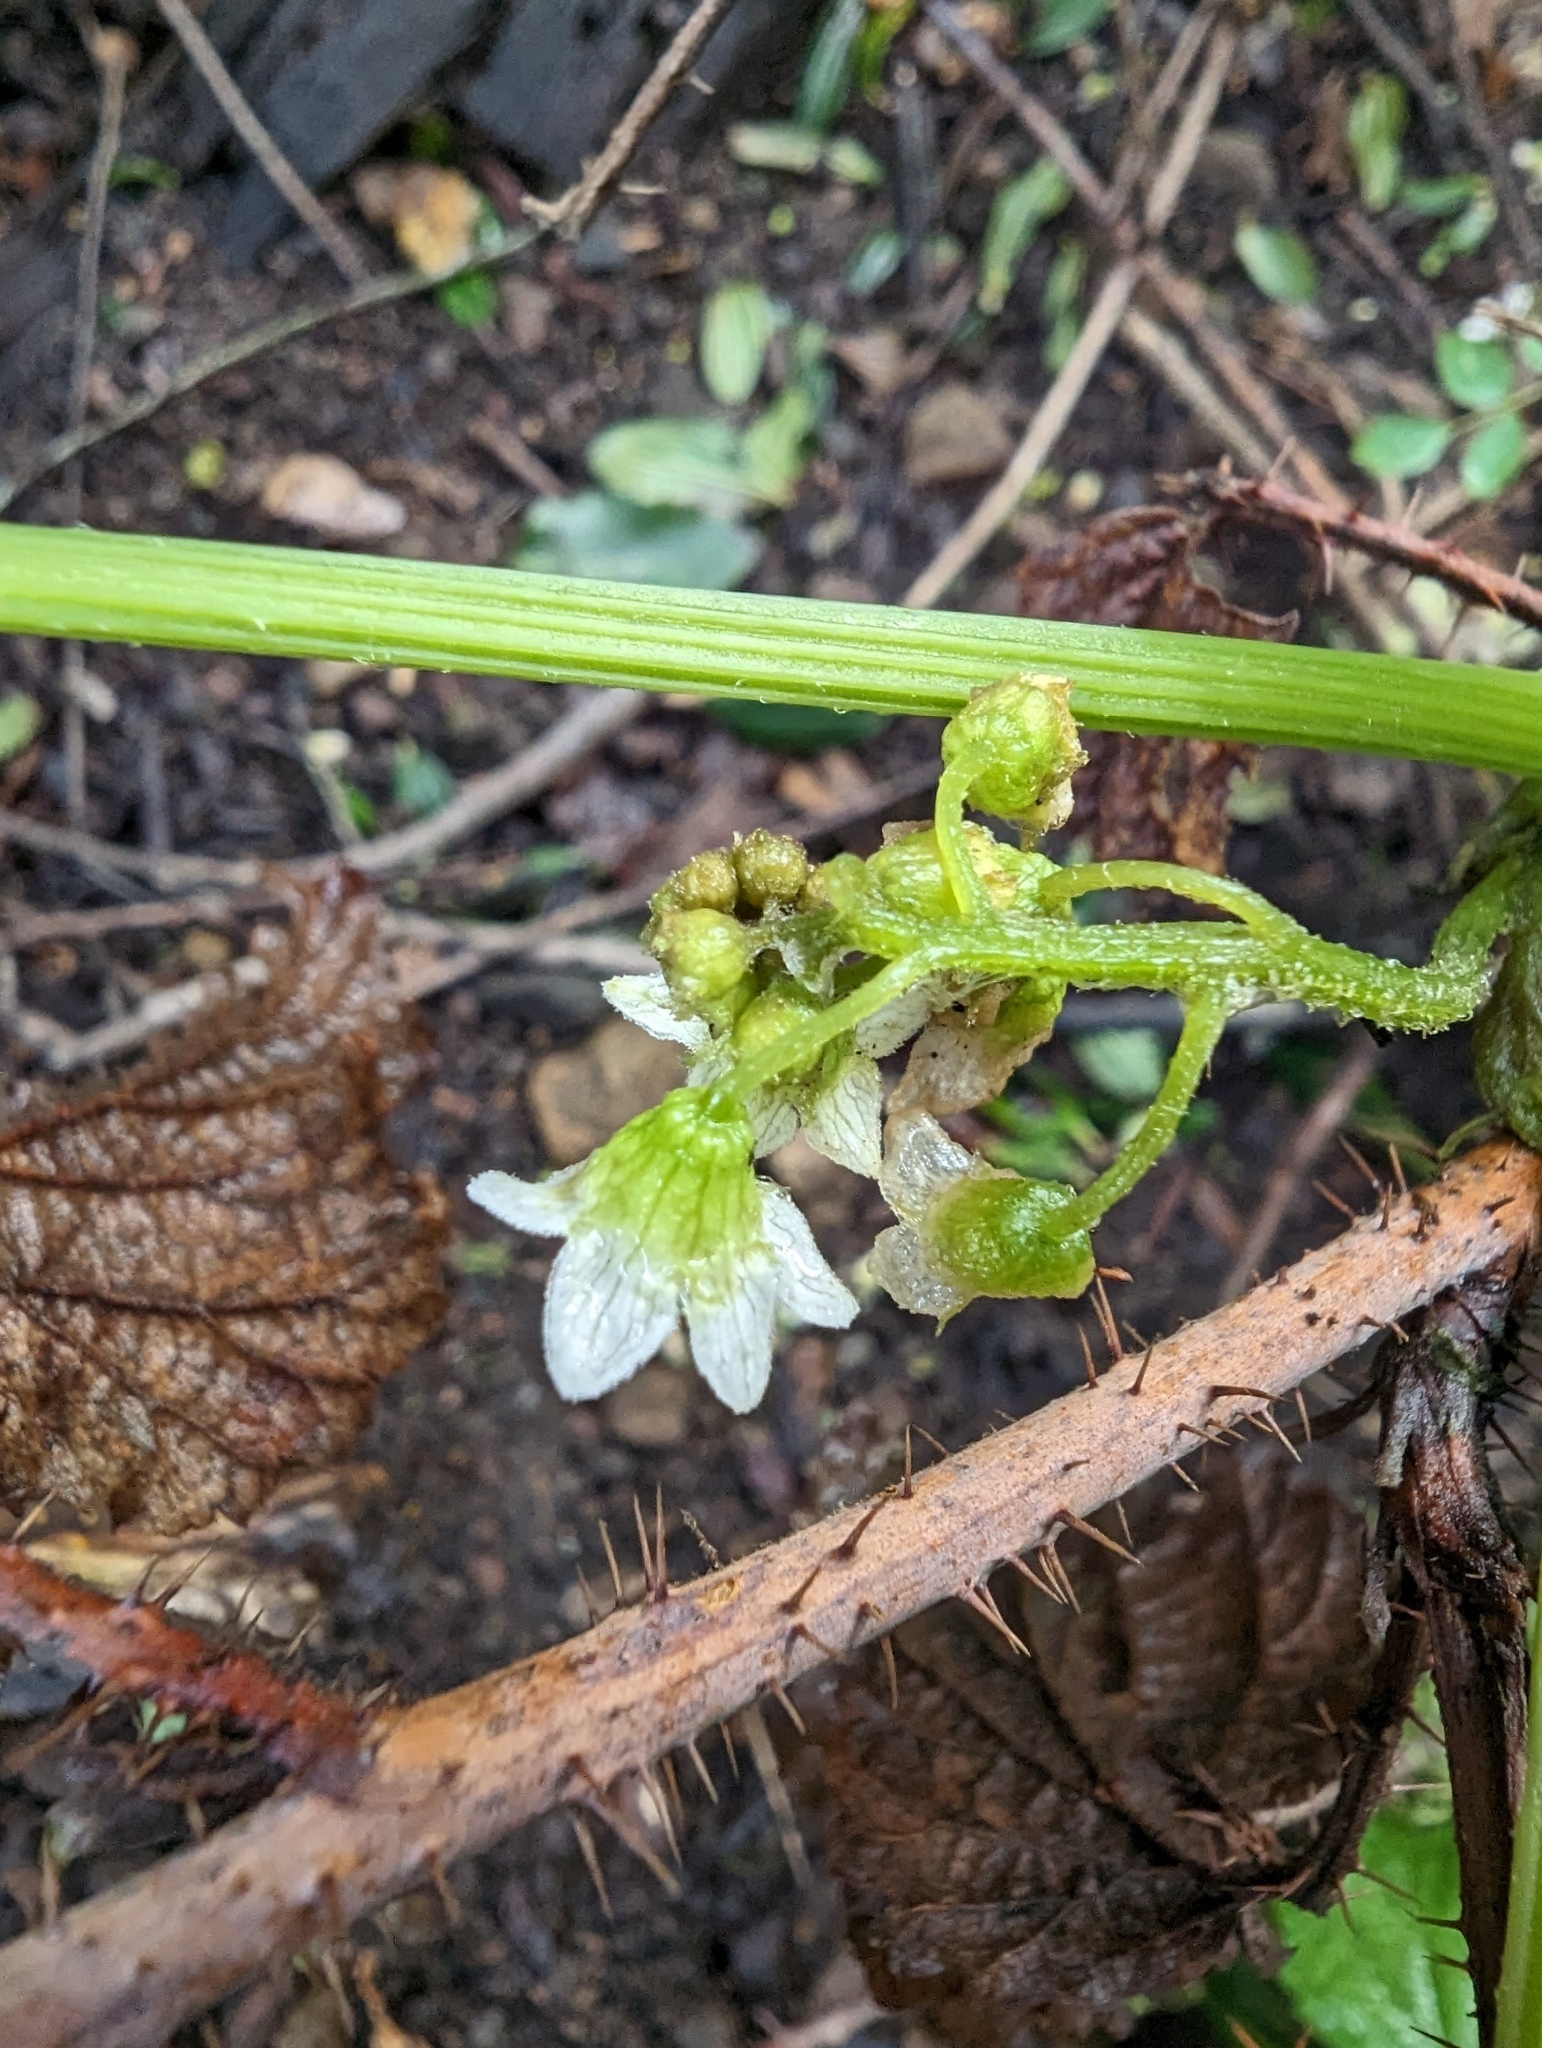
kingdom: Plantae
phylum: Tracheophyta
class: Magnoliopsida
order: Cucurbitales
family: Cucurbitaceae
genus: Marah
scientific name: Marah oregana
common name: Coastal manroot
